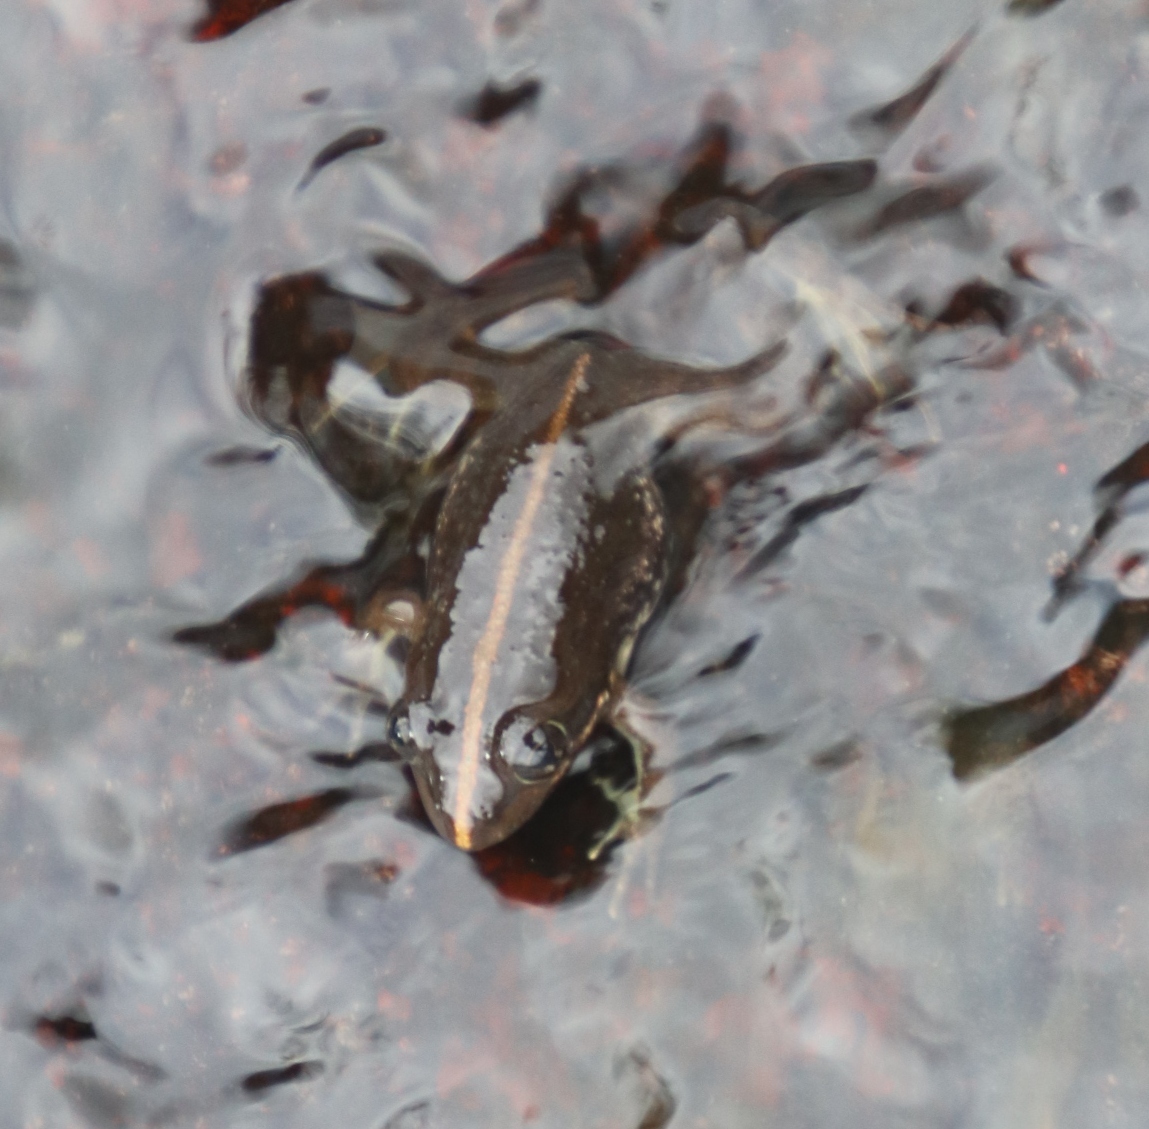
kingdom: Animalia
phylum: Chordata
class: Amphibia
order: Anura
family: Pyxicephalidae
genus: Amietia
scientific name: Amietia fuscigula
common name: Cape rana
